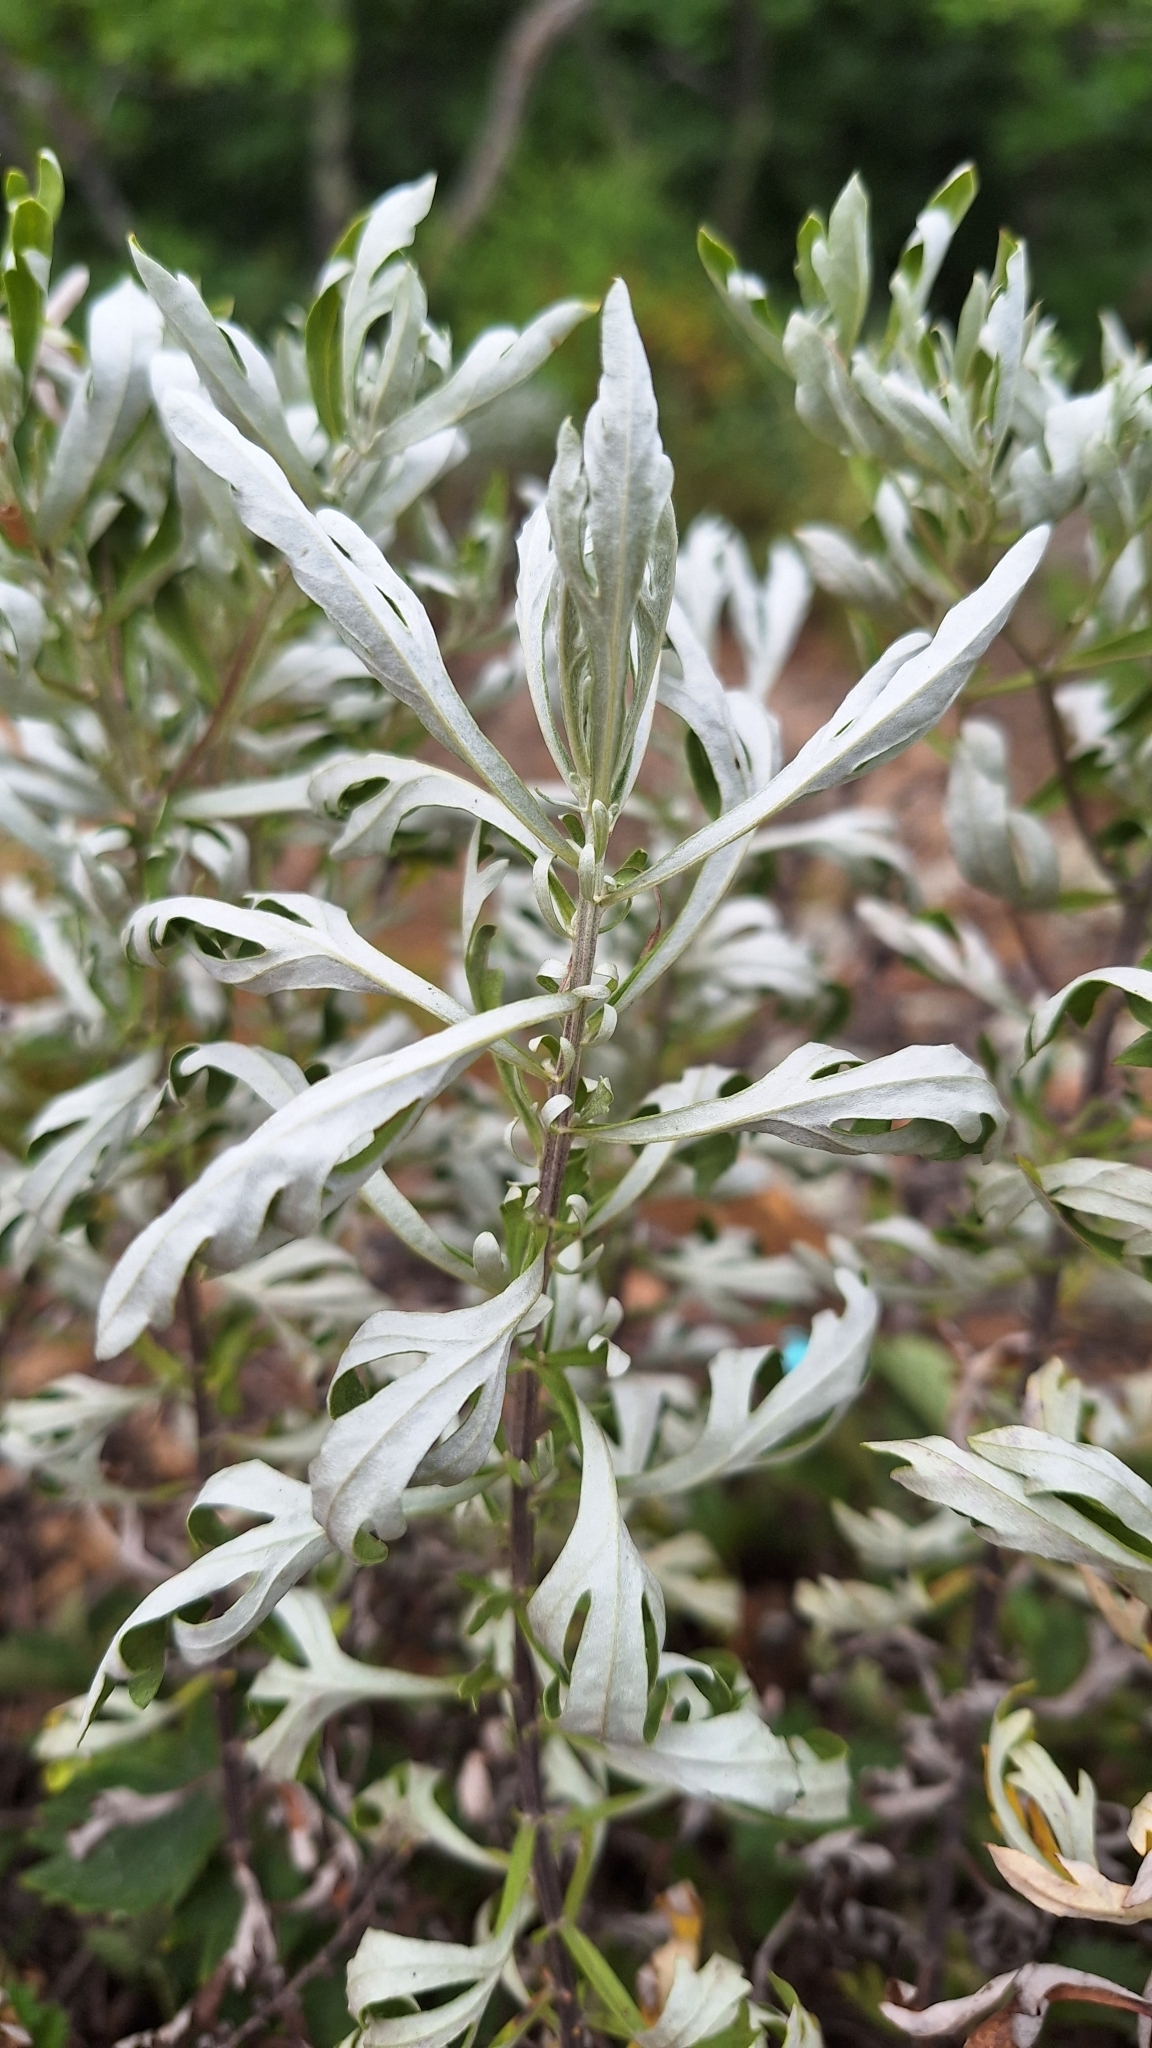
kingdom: Plantae
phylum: Tracheophyta
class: Magnoliopsida
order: Asterales
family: Asteraceae
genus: Ajania
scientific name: Ajania pallasiana
